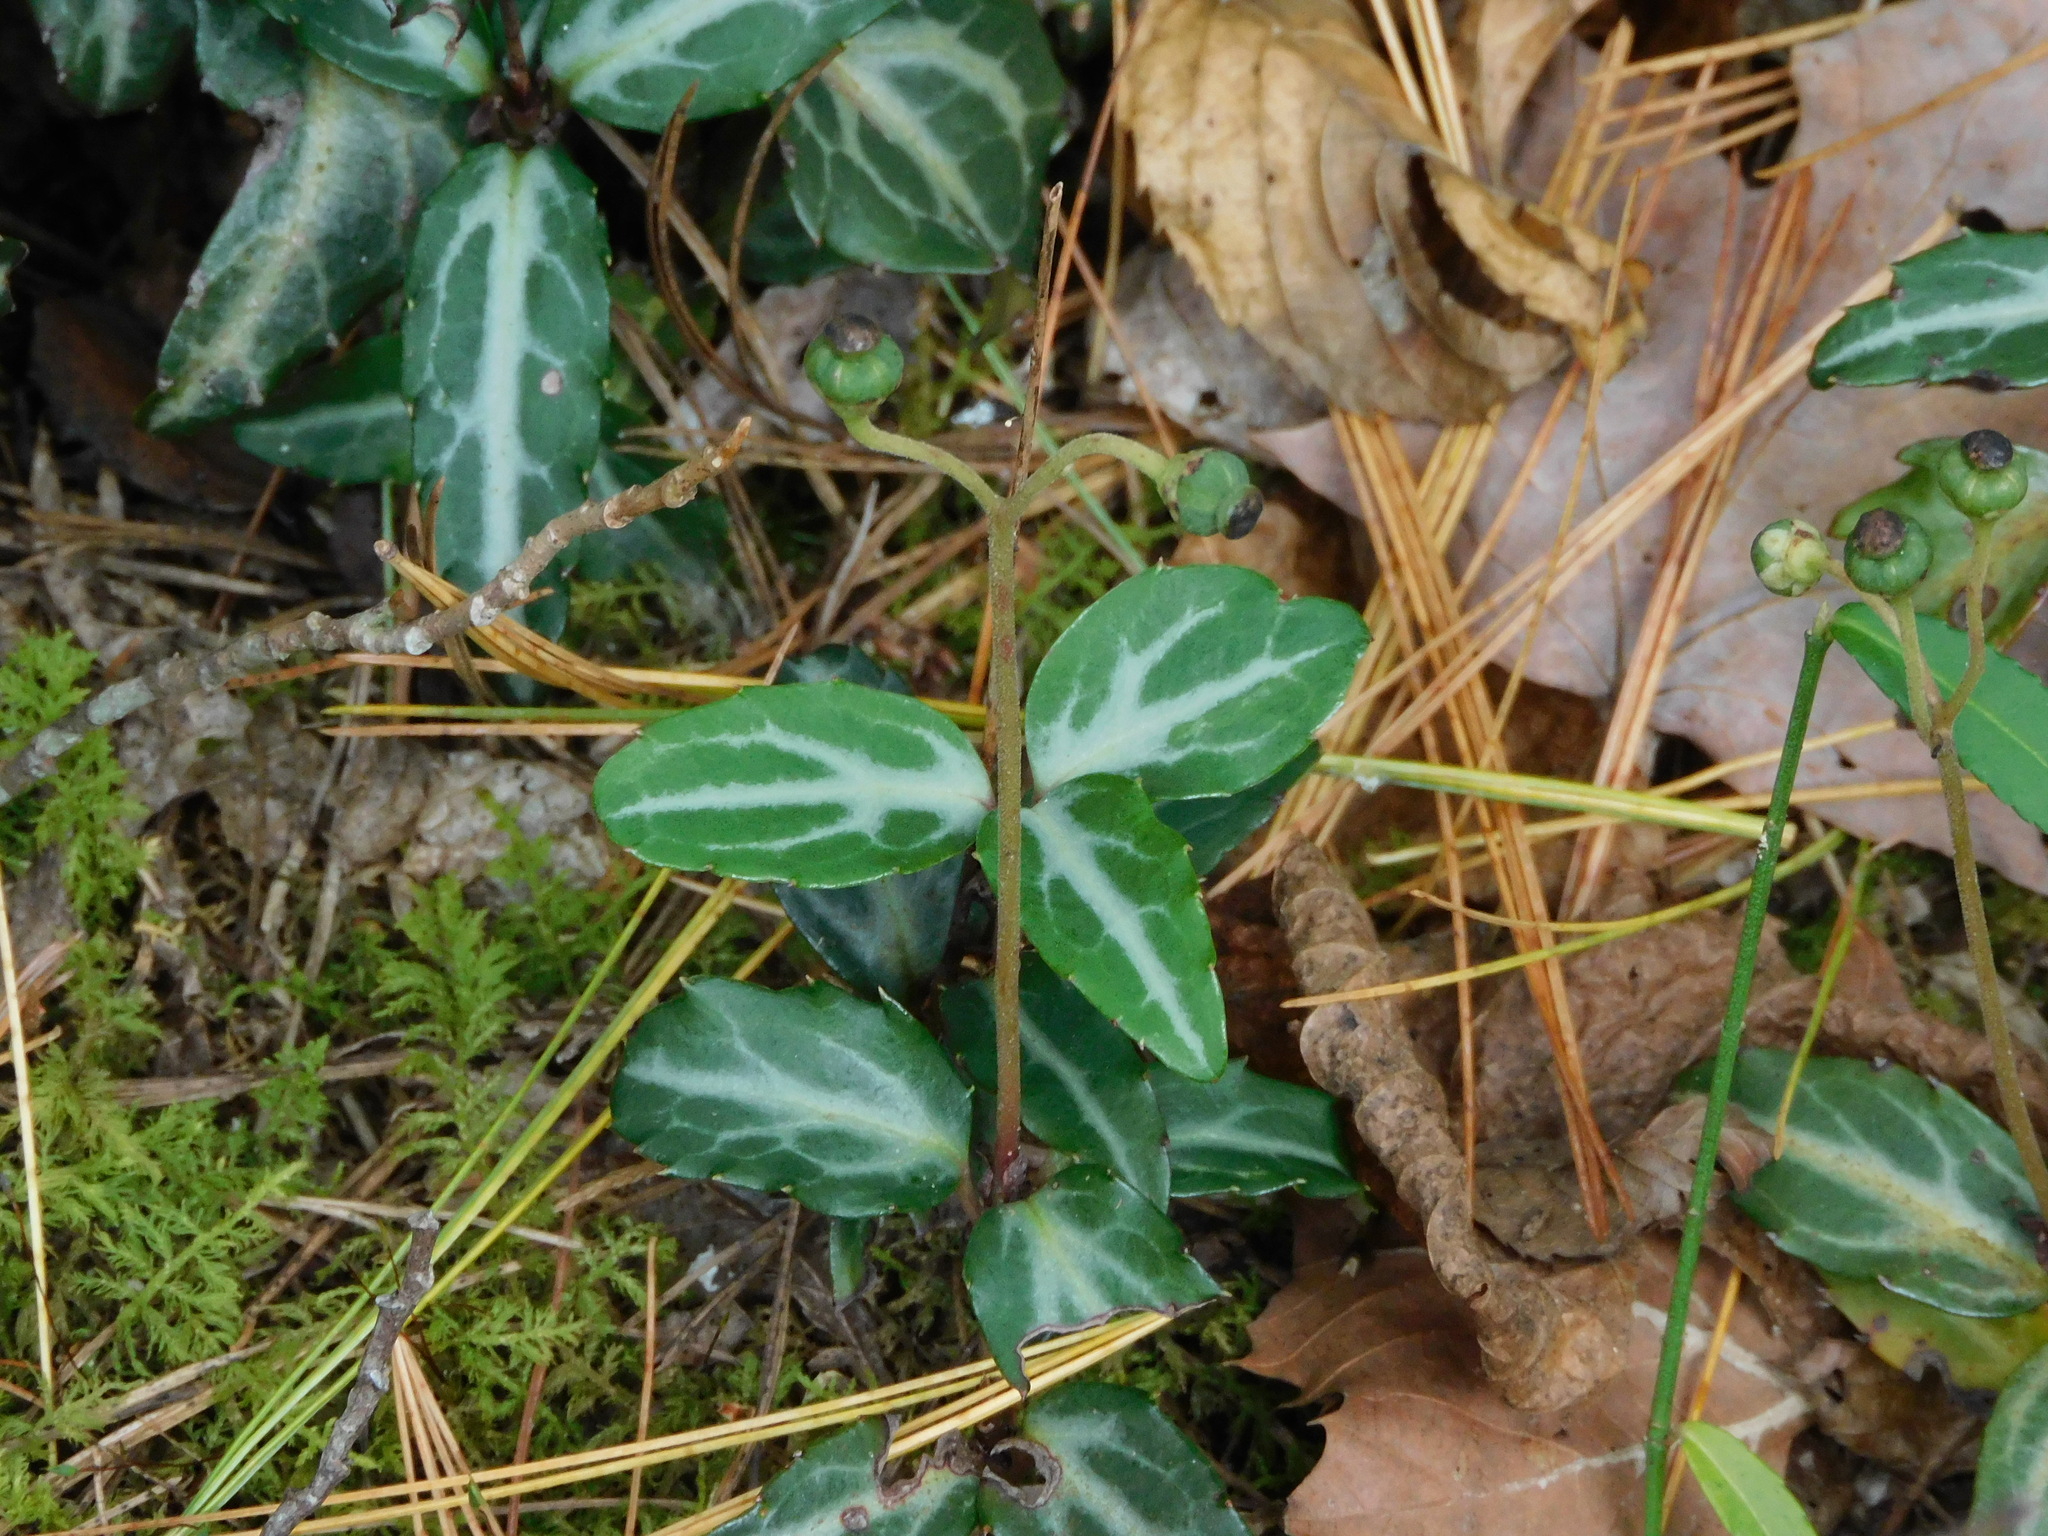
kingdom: Plantae
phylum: Tracheophyta
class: Magnoliopsida
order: Ericales
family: Ericaceae
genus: Chimaphila
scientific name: Chimaphila maculata
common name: Spotted pipsissewa
